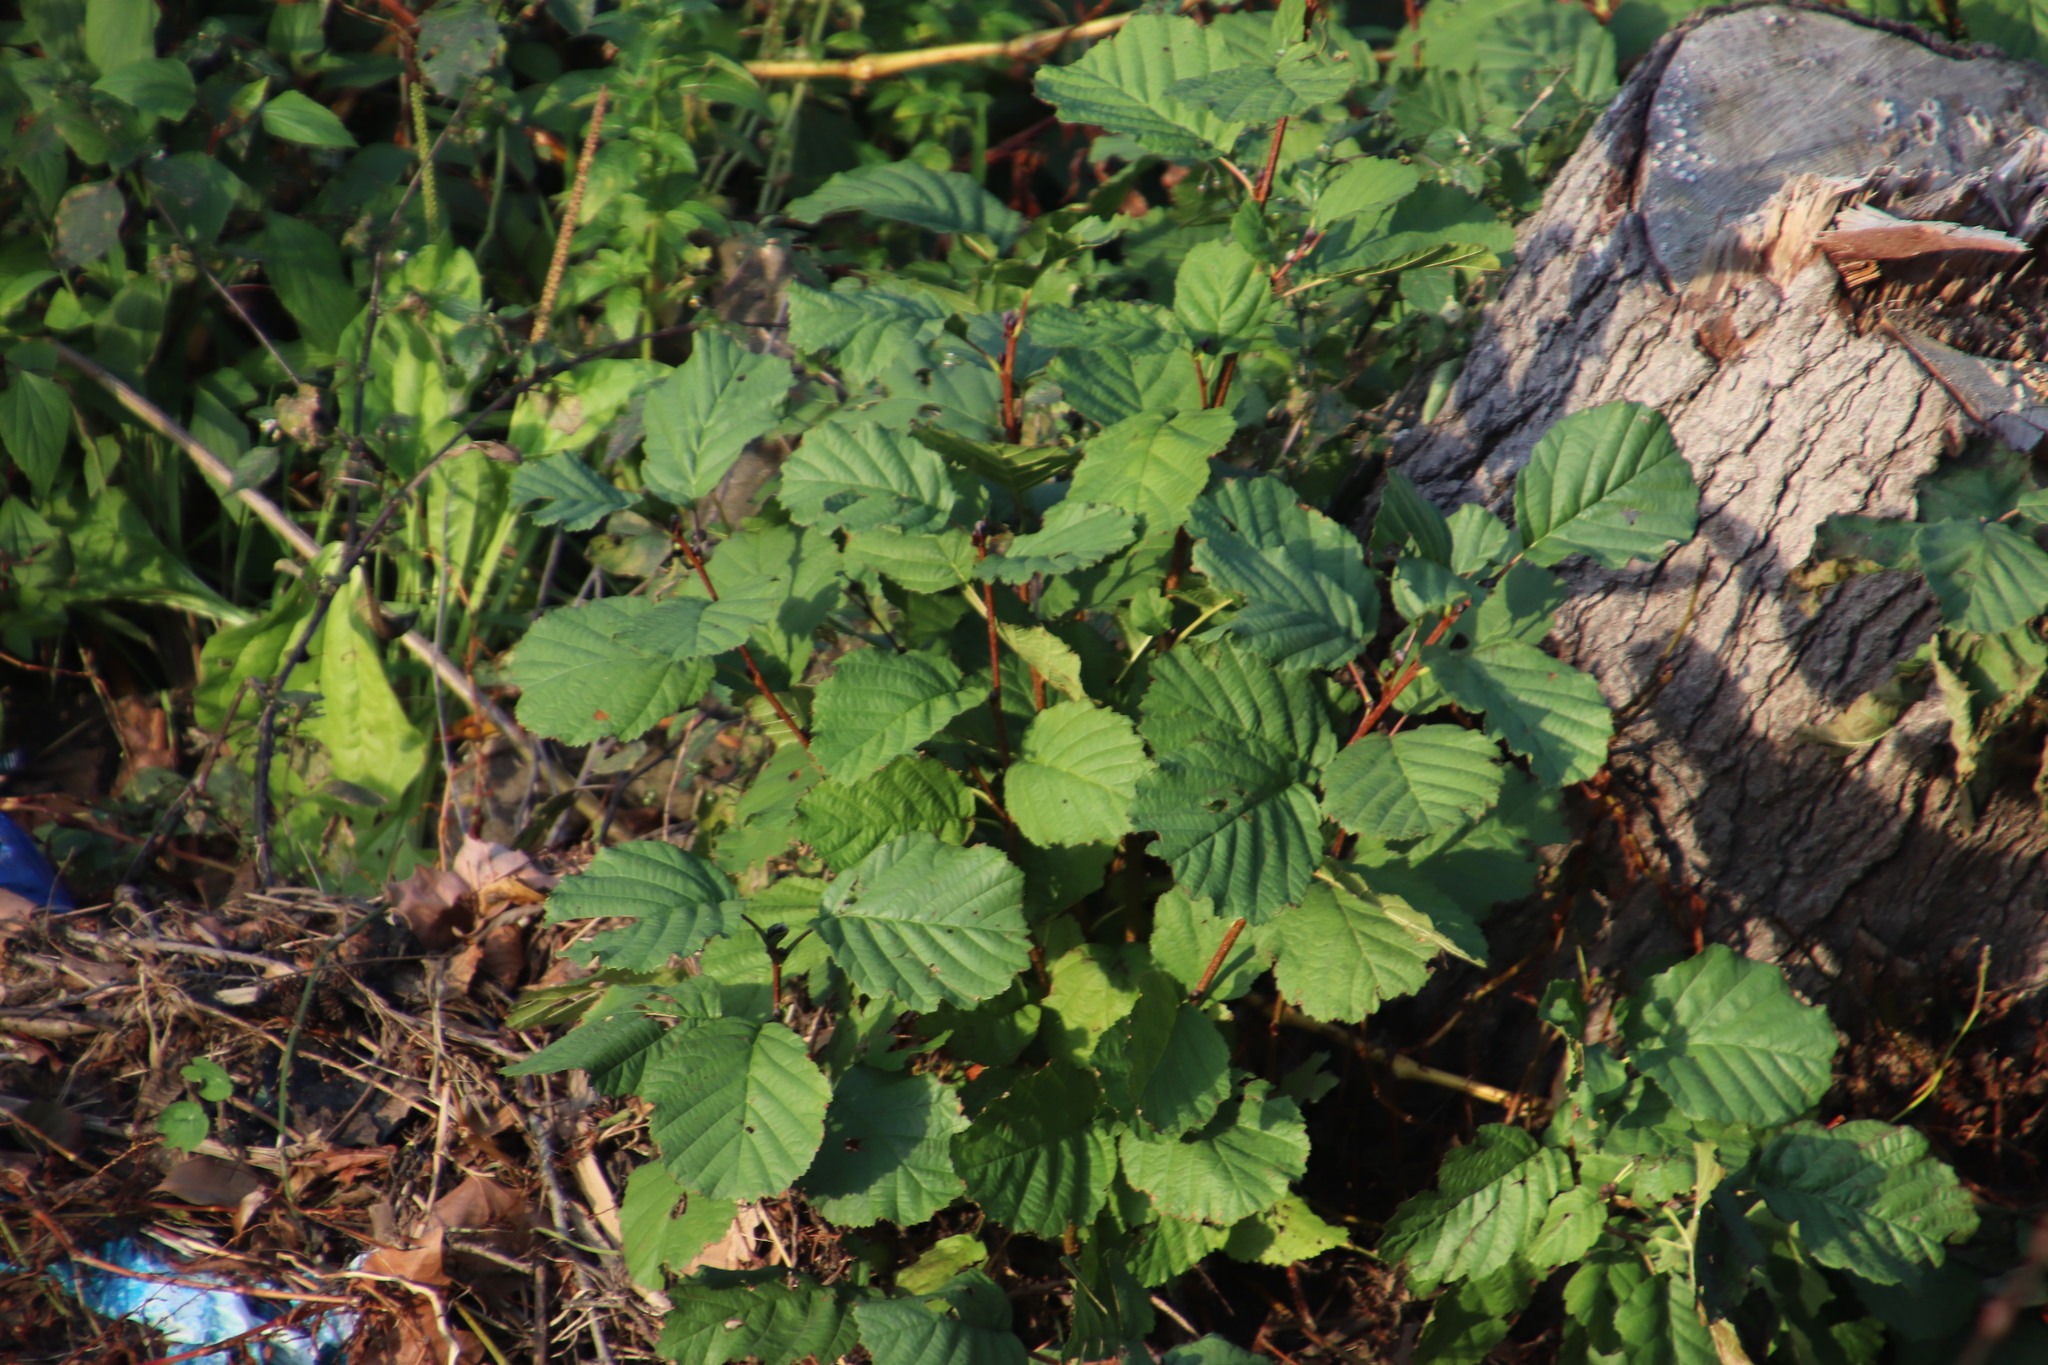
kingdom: Plantae
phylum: Tracheophyta
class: Magnoliopsida
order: Fagales
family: Betulaceae
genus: Alnus
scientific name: Alnus glutinosa
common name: Black alder
